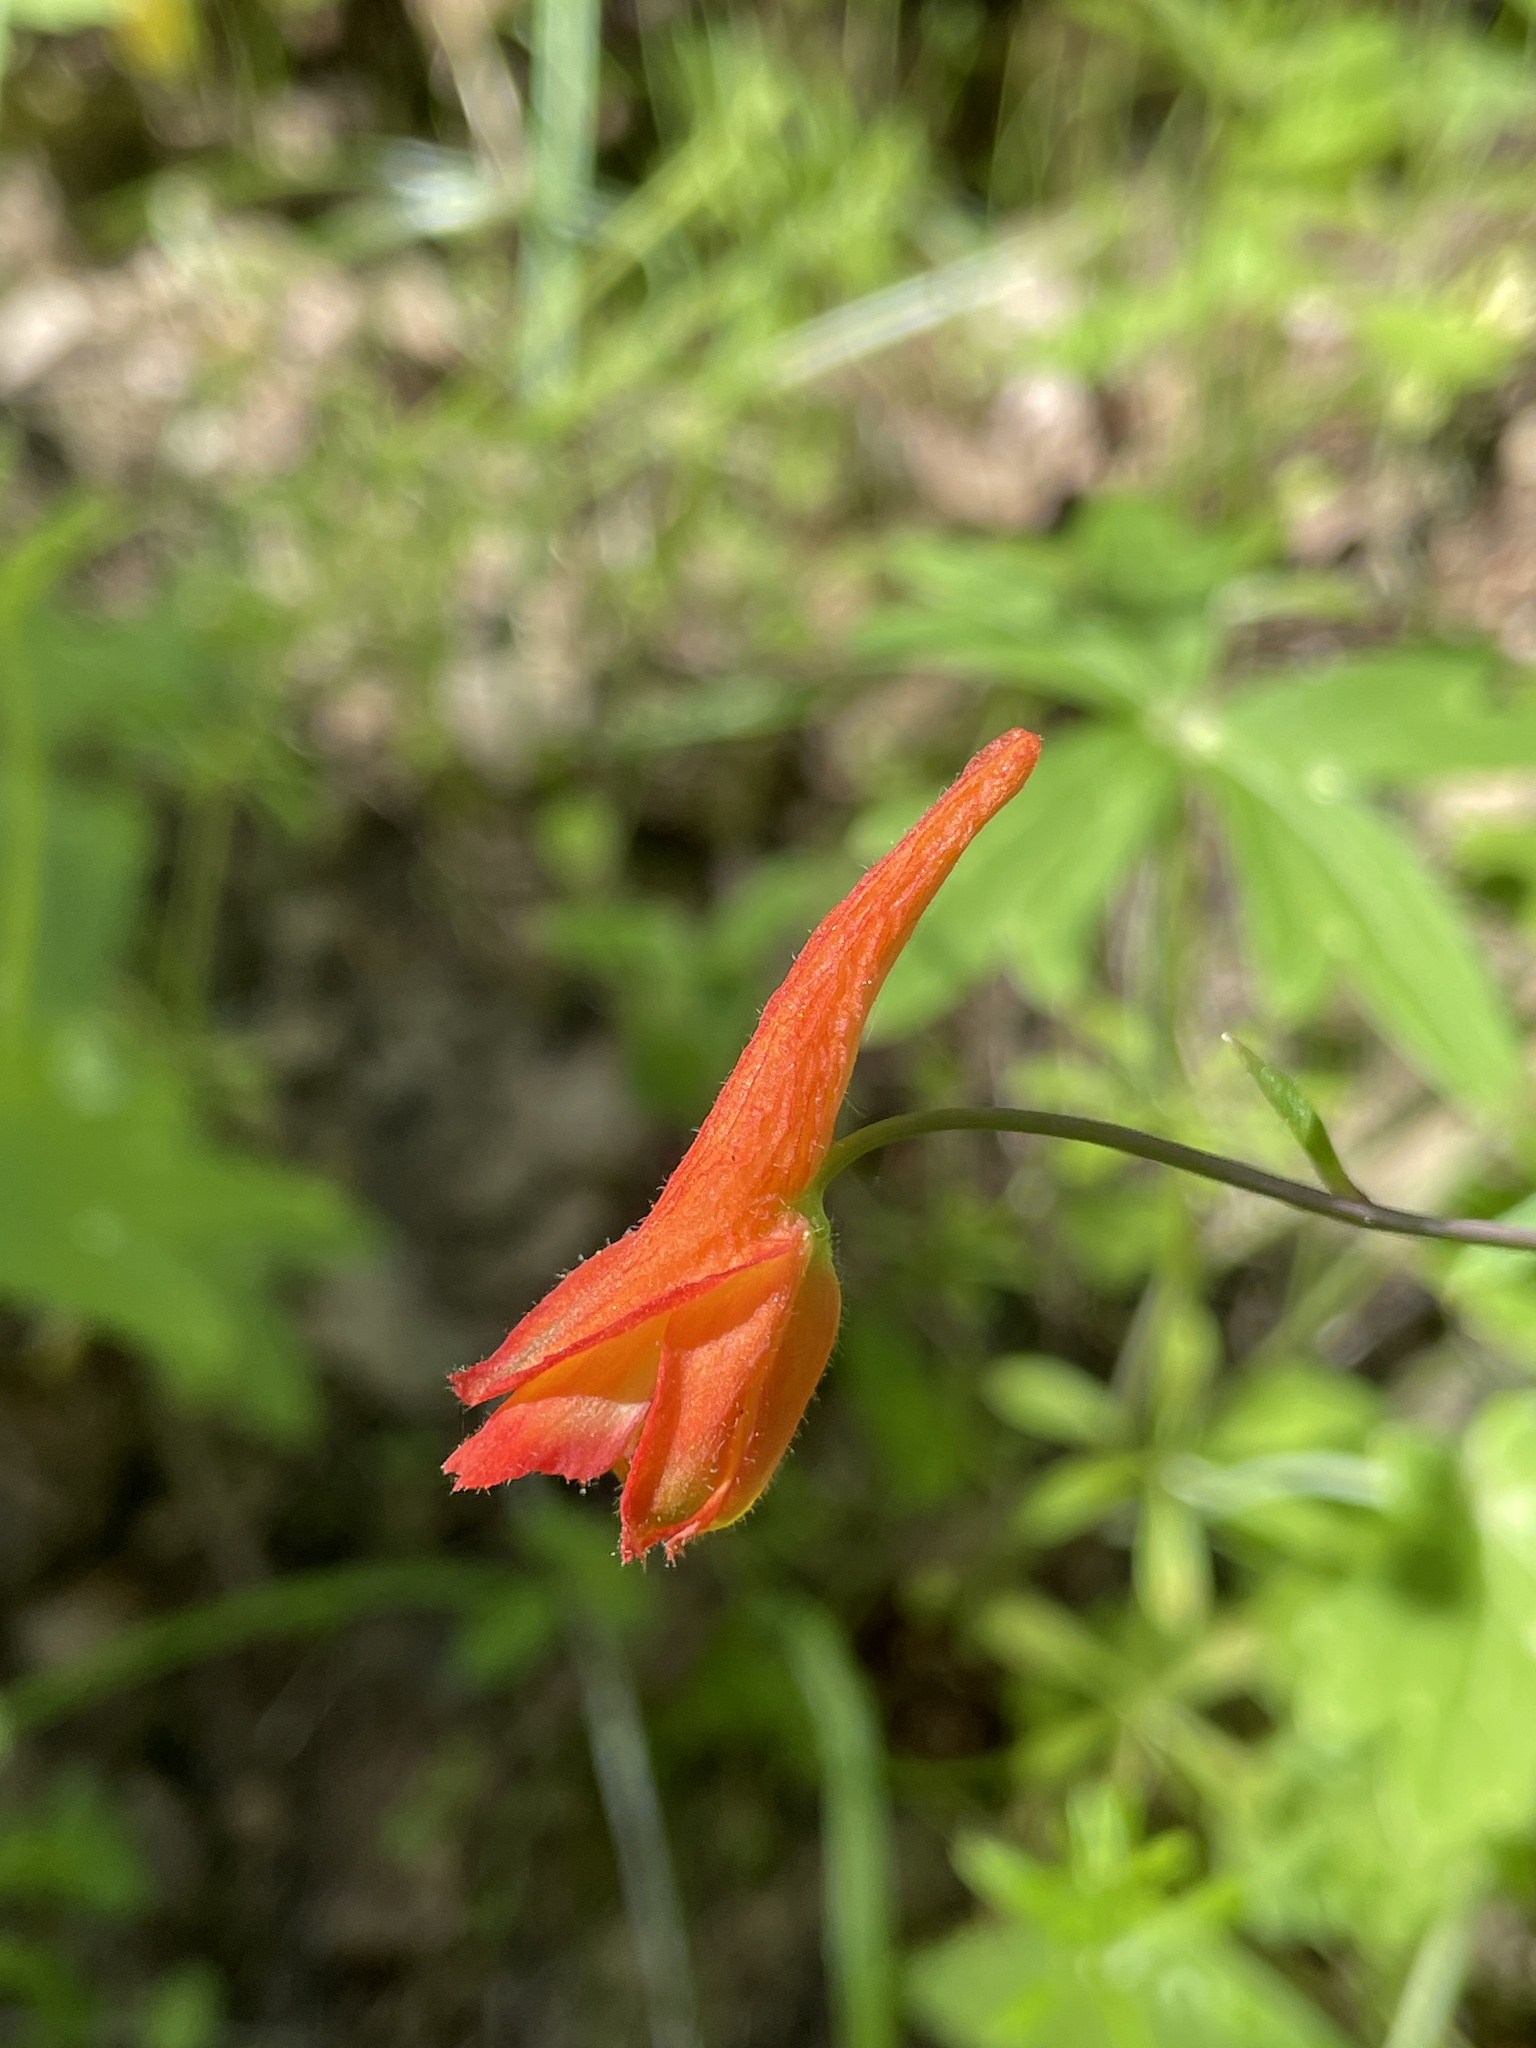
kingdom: Plantae
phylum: Tracheophyta
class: Magnoliopsida
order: Ranunculales
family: Ranunculaceae
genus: Delphinium
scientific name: Delphinium nudicaule
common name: Red larkspur
